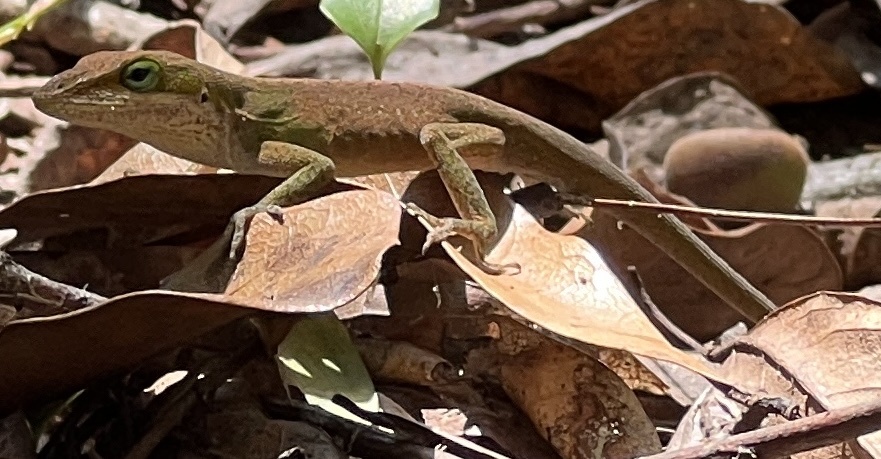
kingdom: Animalia
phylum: Chordata
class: Squamata
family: Dactyloidae
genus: Anolis
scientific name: Anolis carolinensis
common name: Green anole
